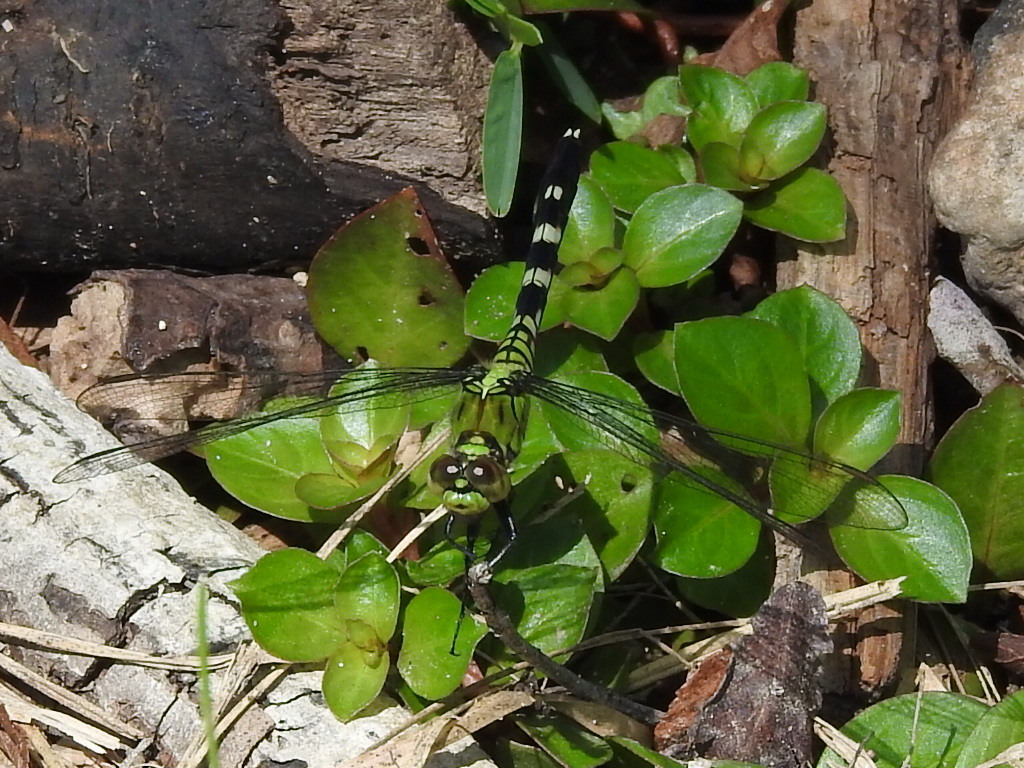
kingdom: Animalia
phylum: Arthropoda
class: Insecta
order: Odonata
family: Libellulidae
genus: Erythemis
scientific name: Erythemis simplicicollis
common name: Eastern pondhawk
